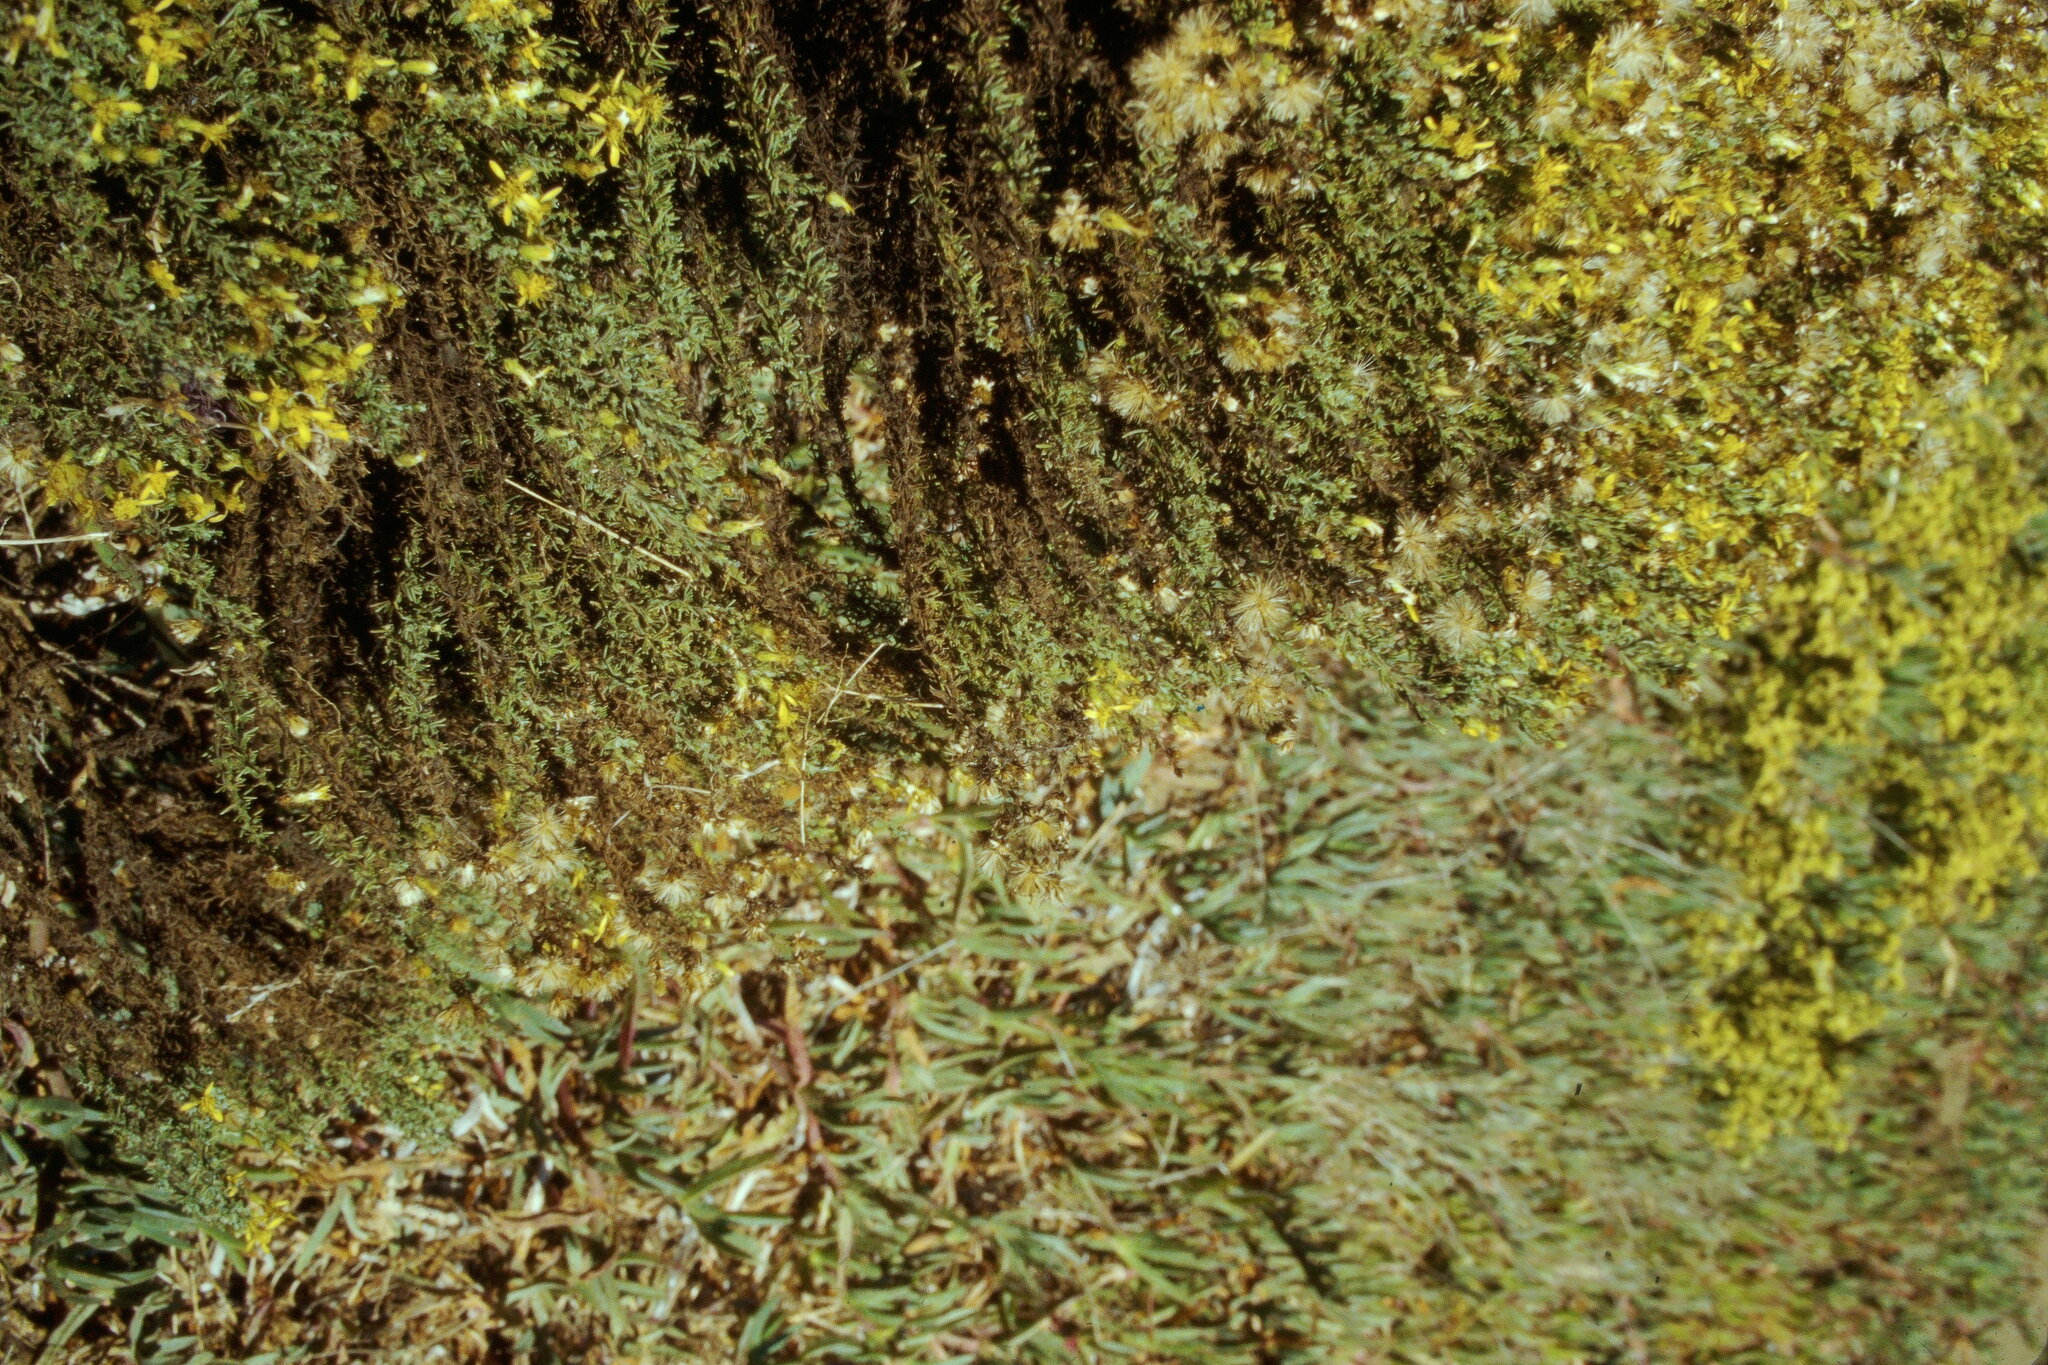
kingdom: Plantae
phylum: Tracheophyta
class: Magnoliopsida
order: Asterales
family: Asteraceae
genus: Ericameria
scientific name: Ericameria ericoides
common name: California goldenbush
